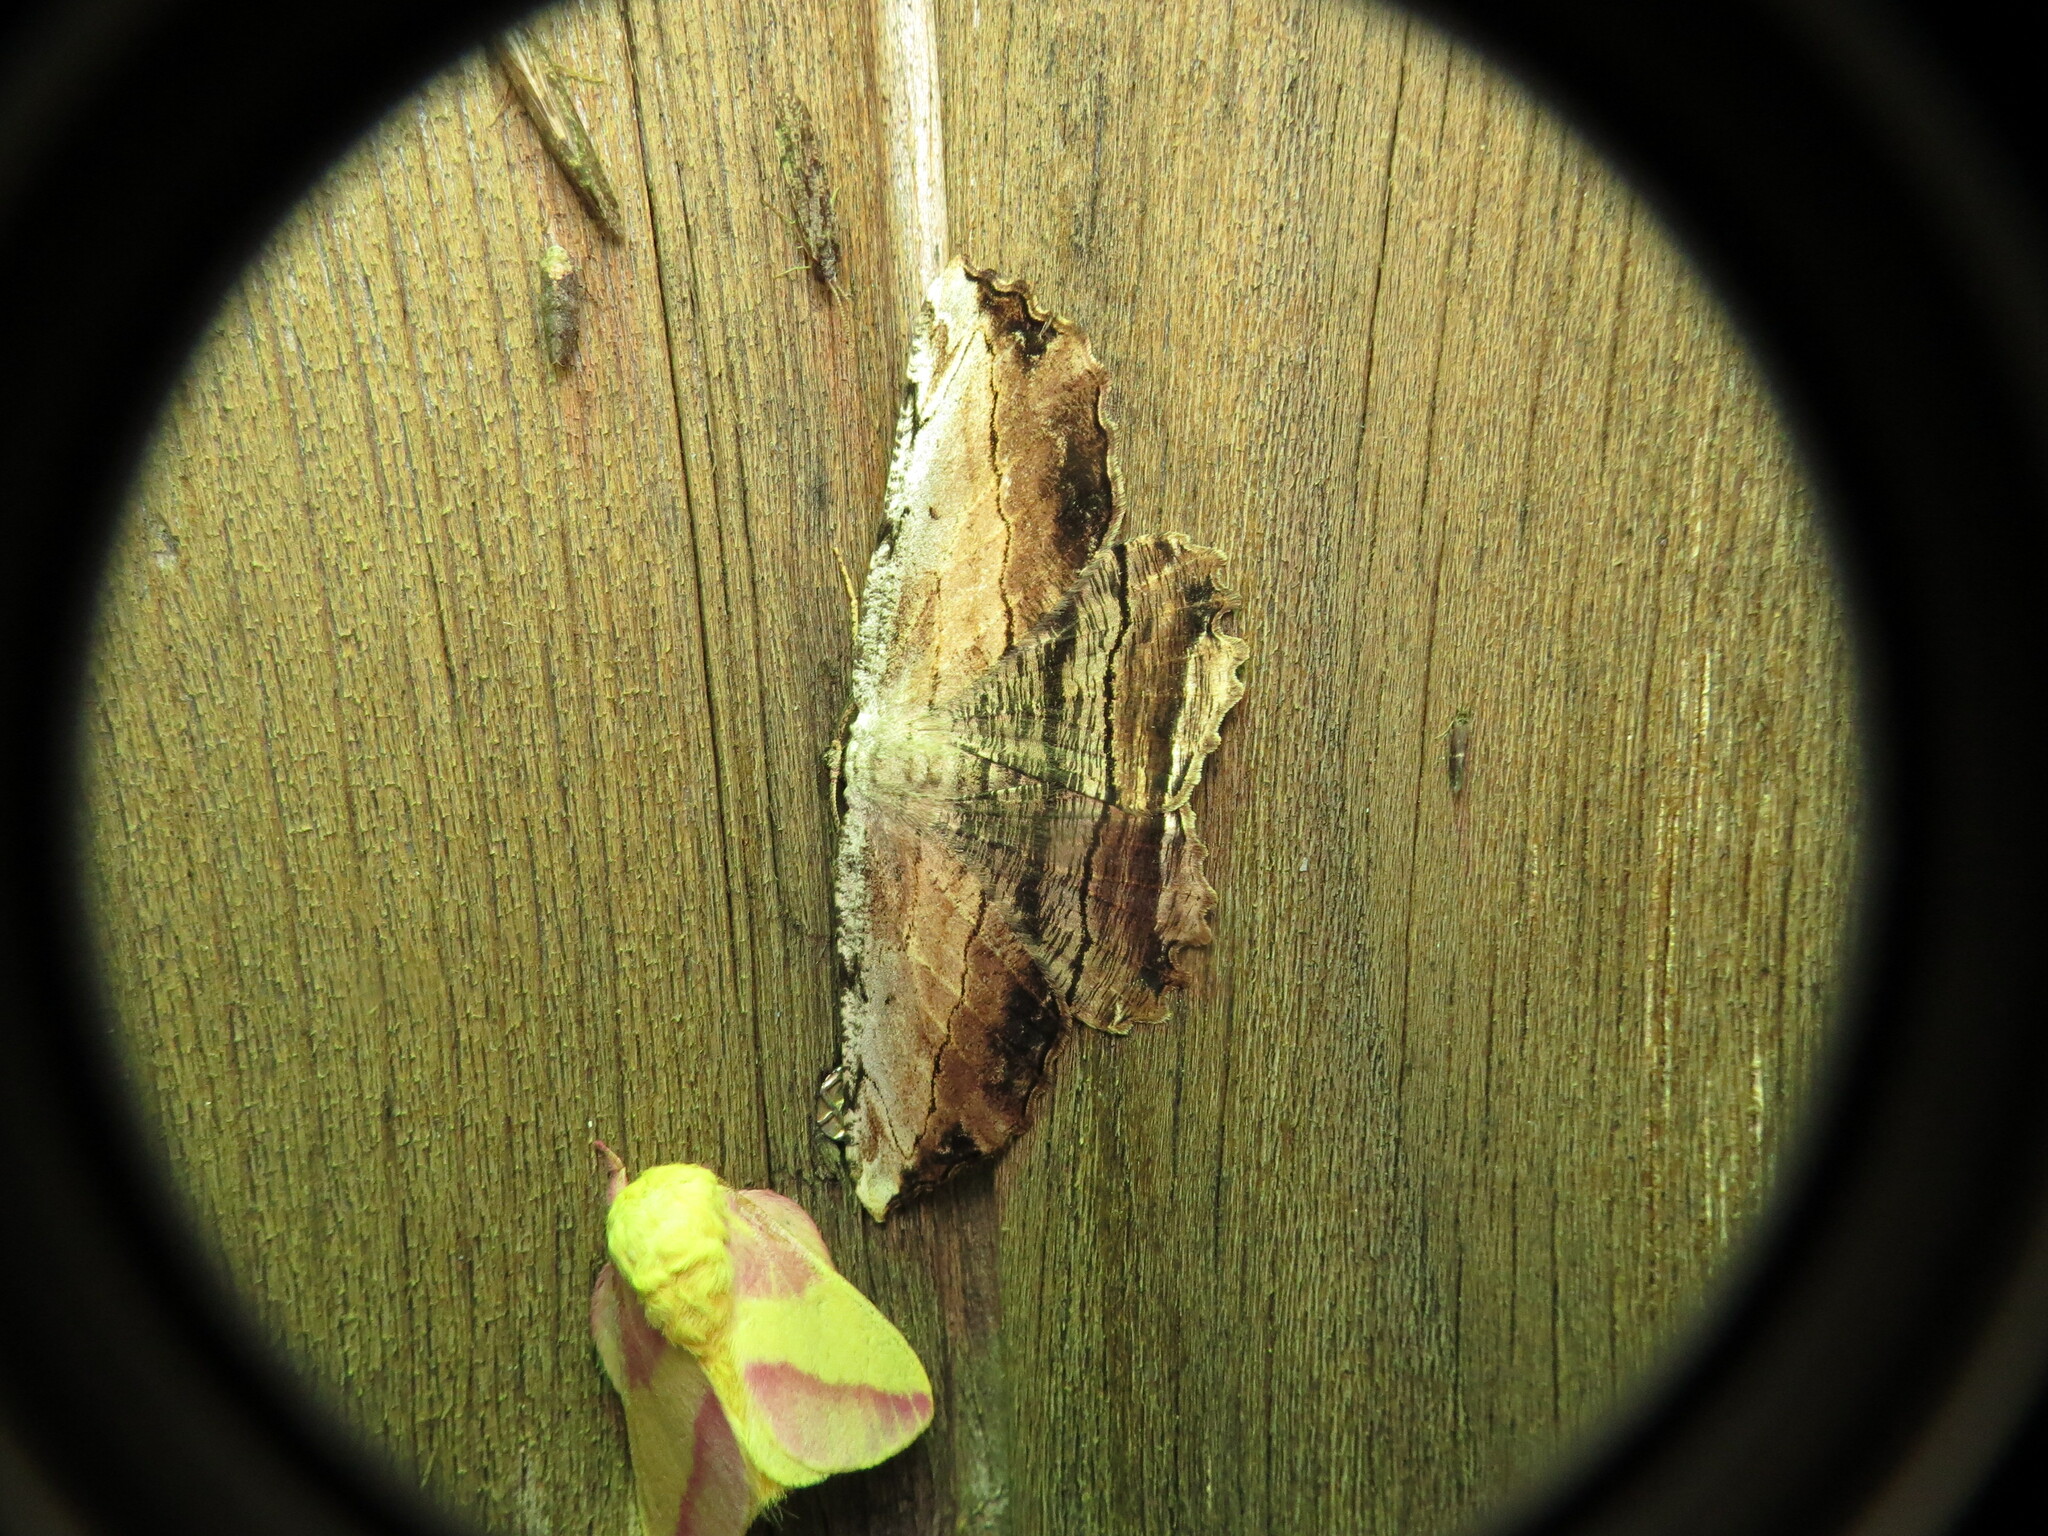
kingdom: Animalia
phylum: Arthropoda
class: Insecta
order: Lepidoptera
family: Geometridae
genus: Lytrosis
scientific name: Lytrosis unitaria
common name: Common lytrosis
